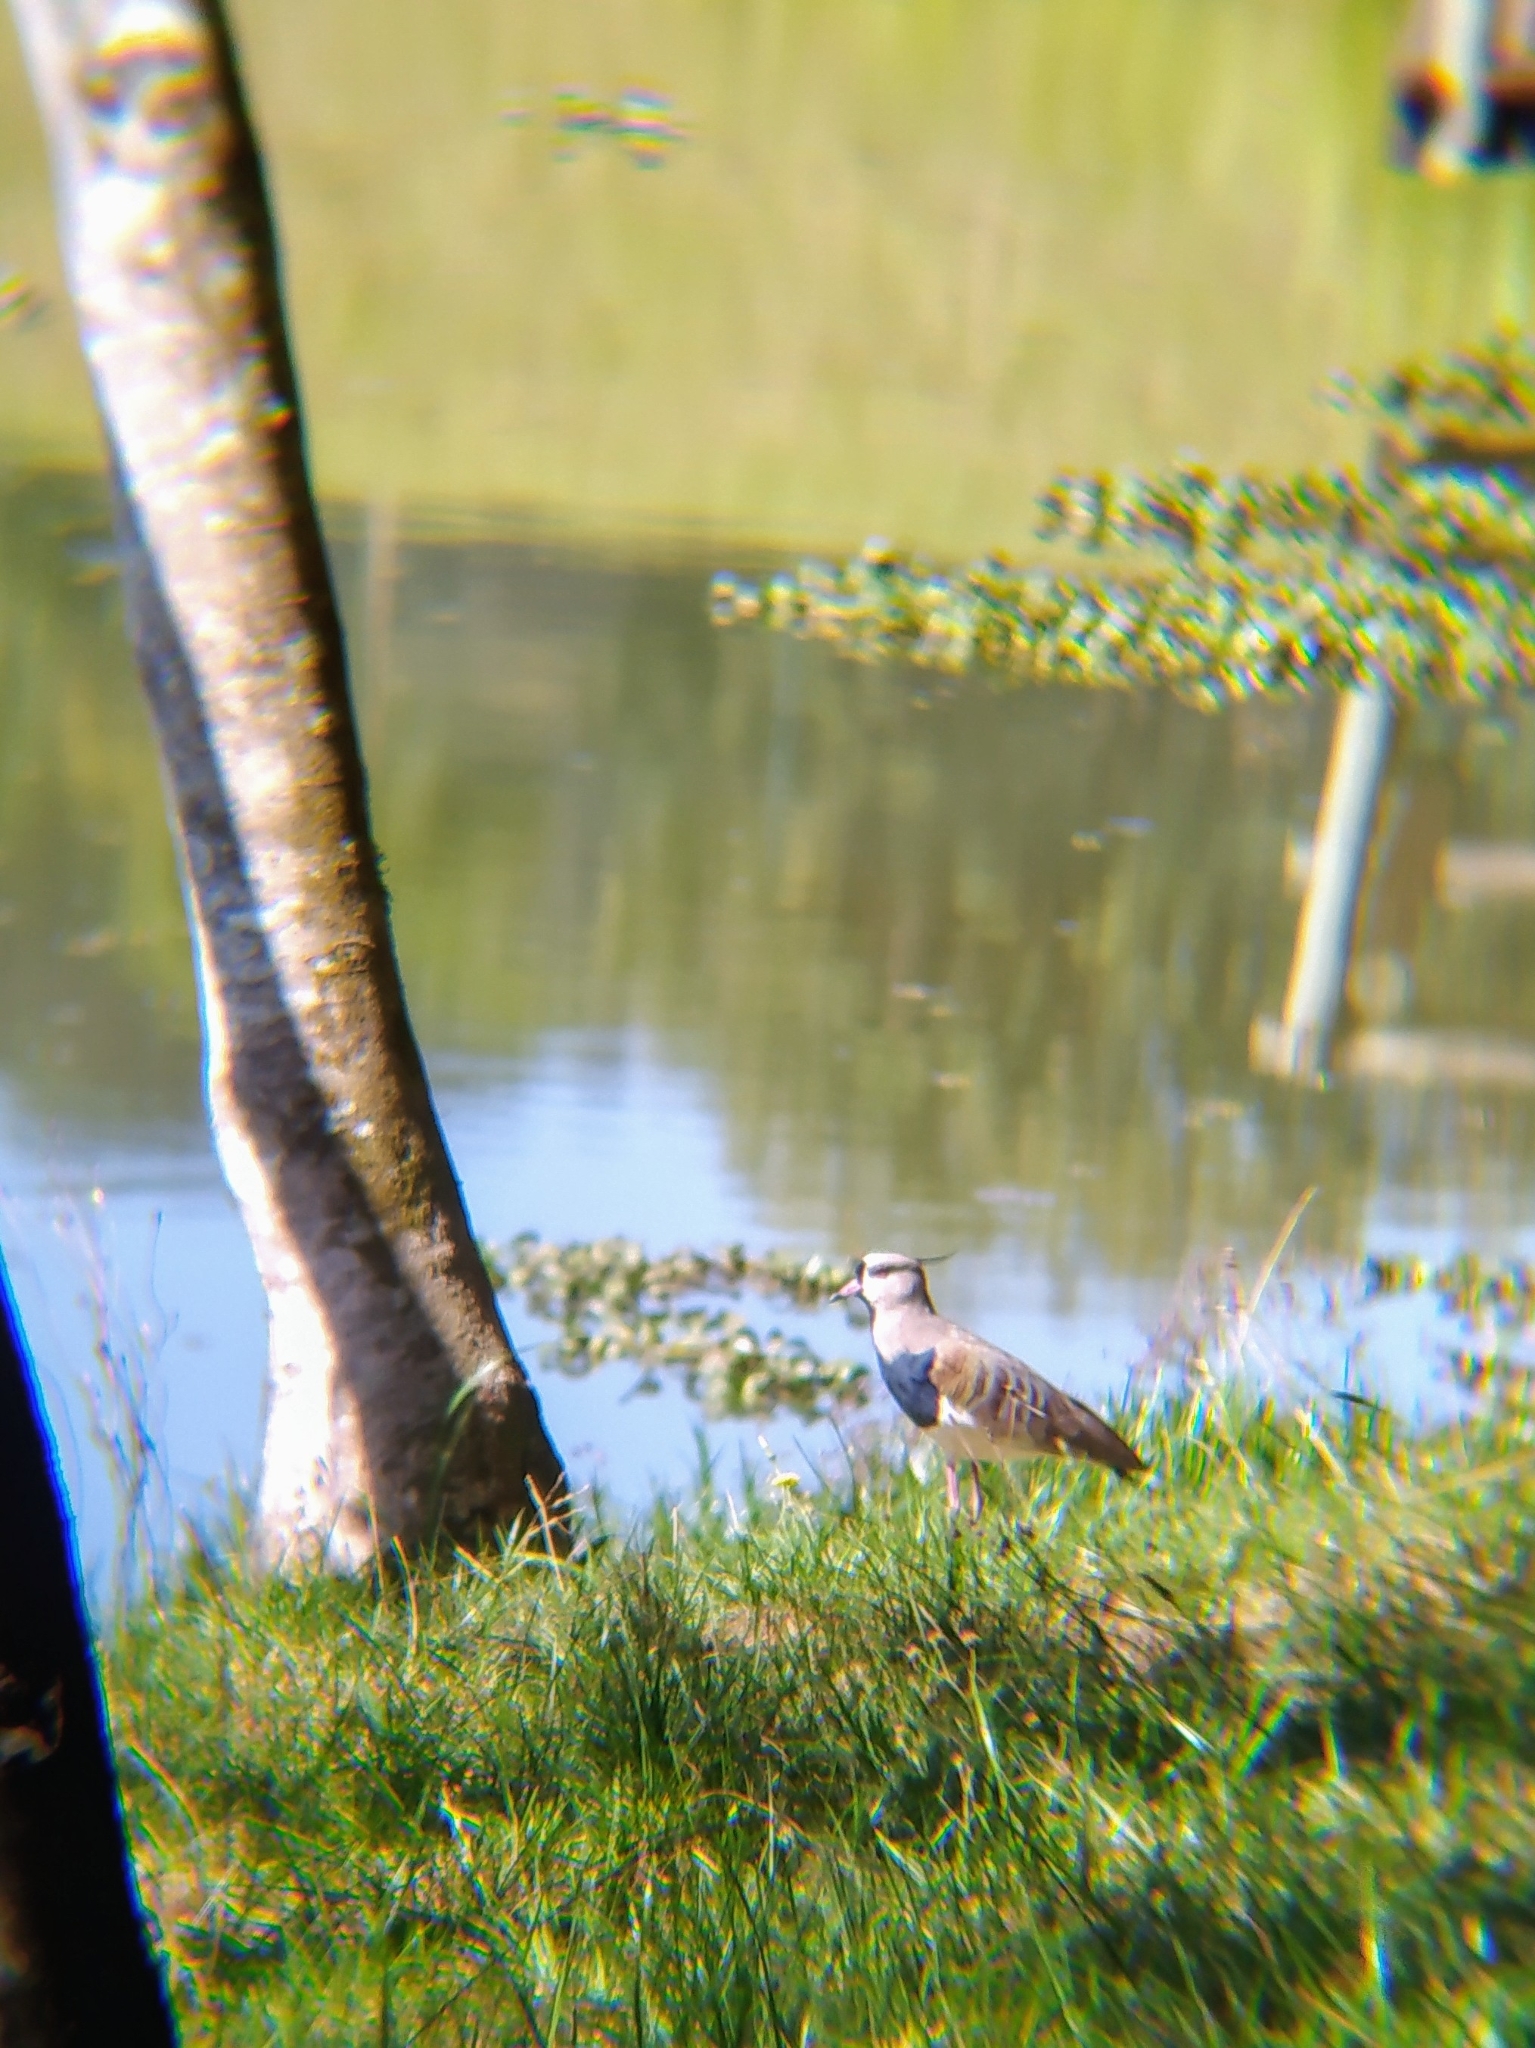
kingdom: Animalia
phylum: Chordata
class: Aves
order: Charadriiformes
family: Charadriidae
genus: Vanellus
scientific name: Vanellus chilensis
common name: Southern lapwing
